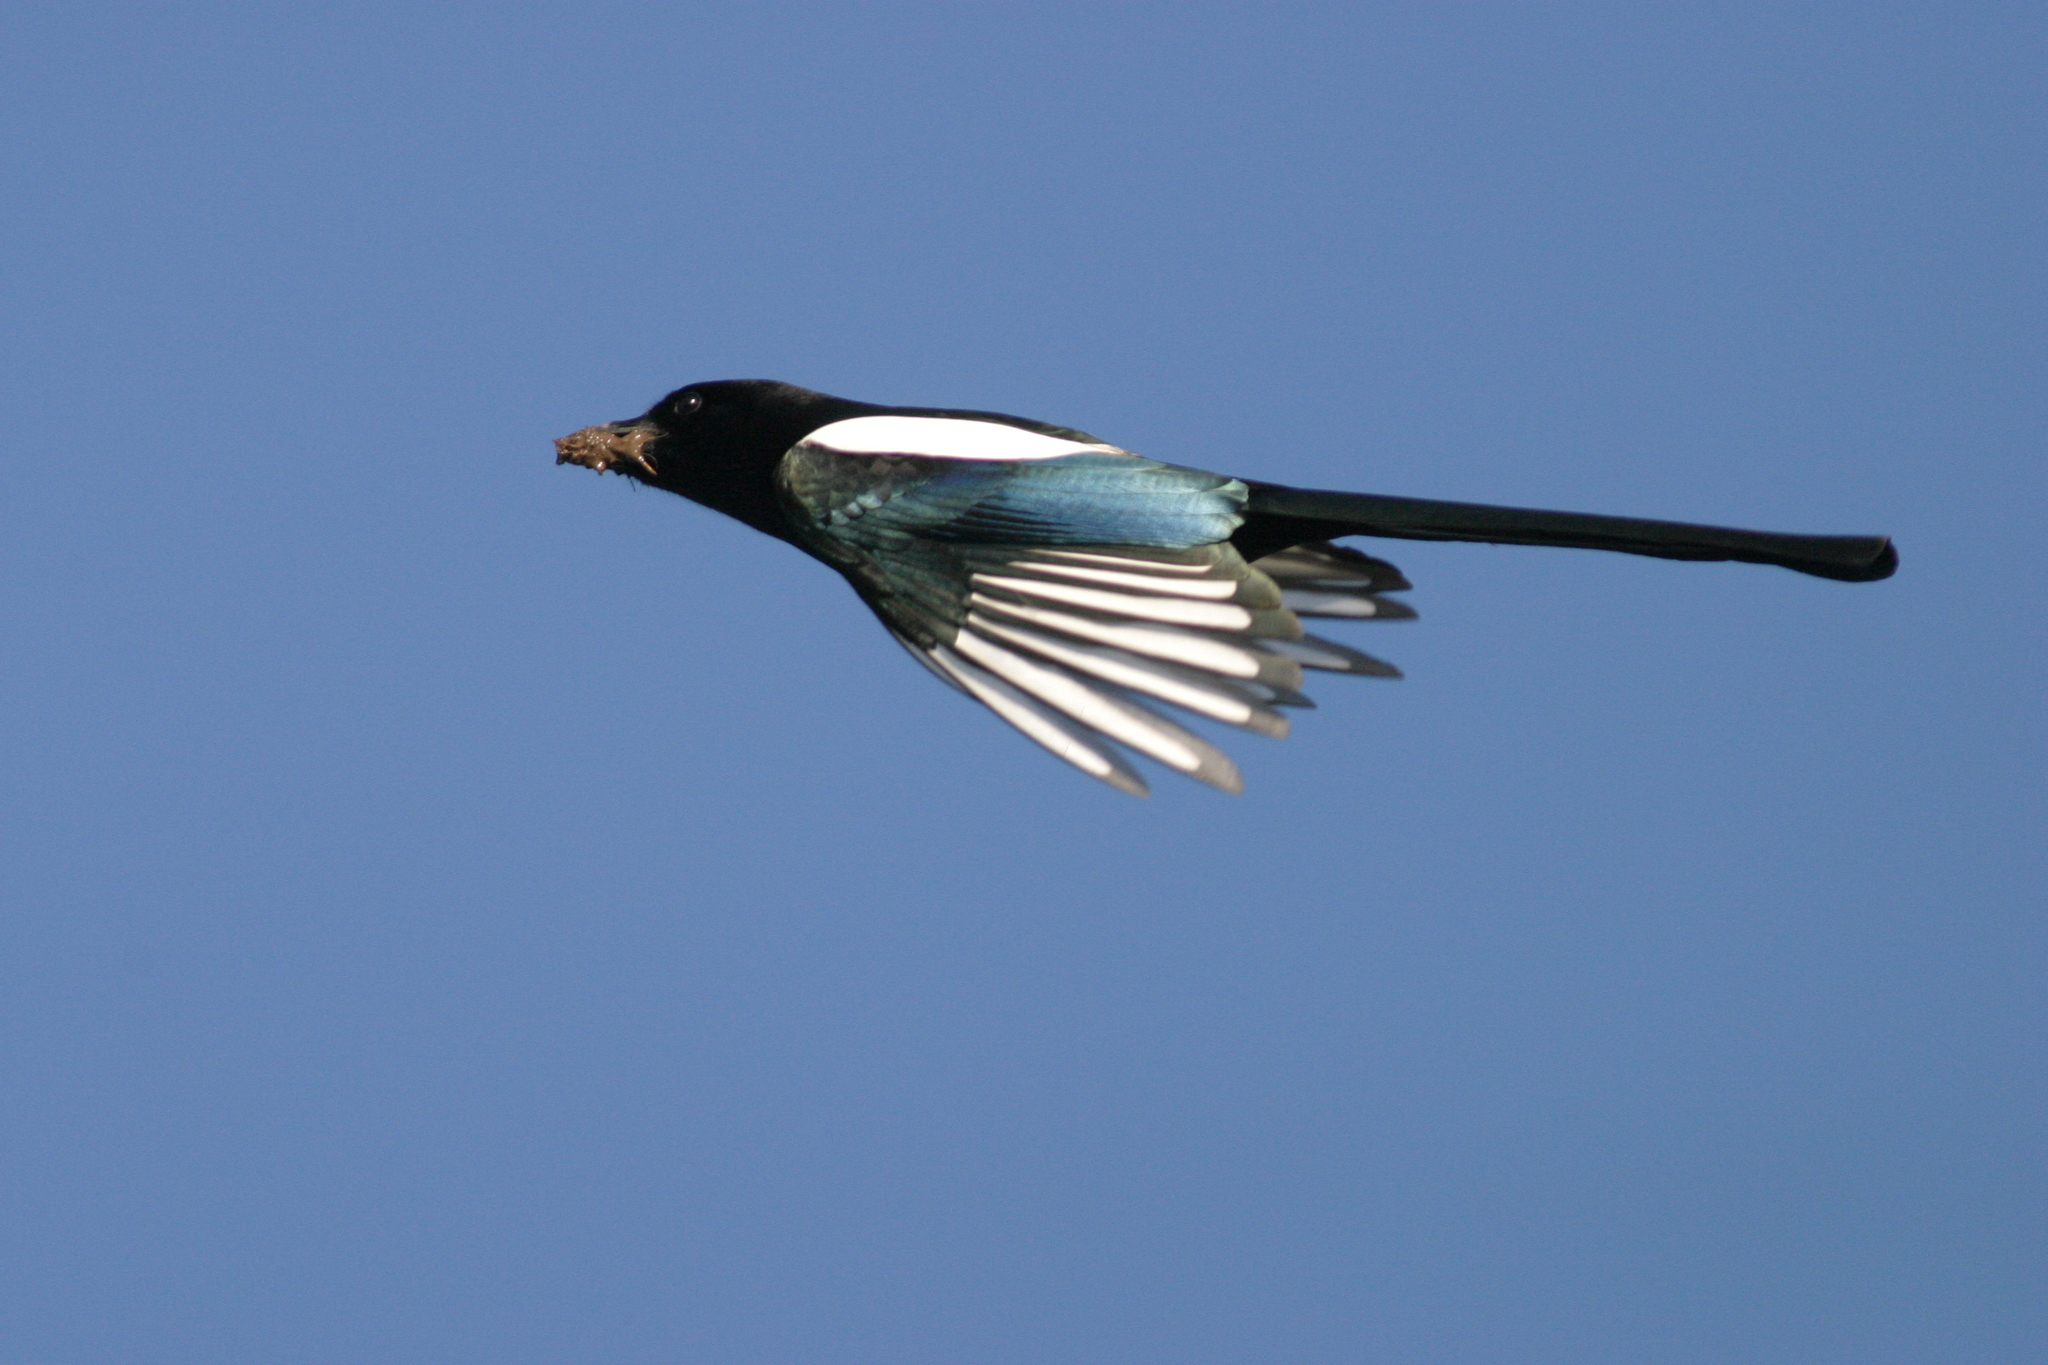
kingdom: Animalia
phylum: Chordata
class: Aves
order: Passeriformes
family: Corvidae
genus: Pica
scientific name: Pica pica
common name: Eurasian magpie
